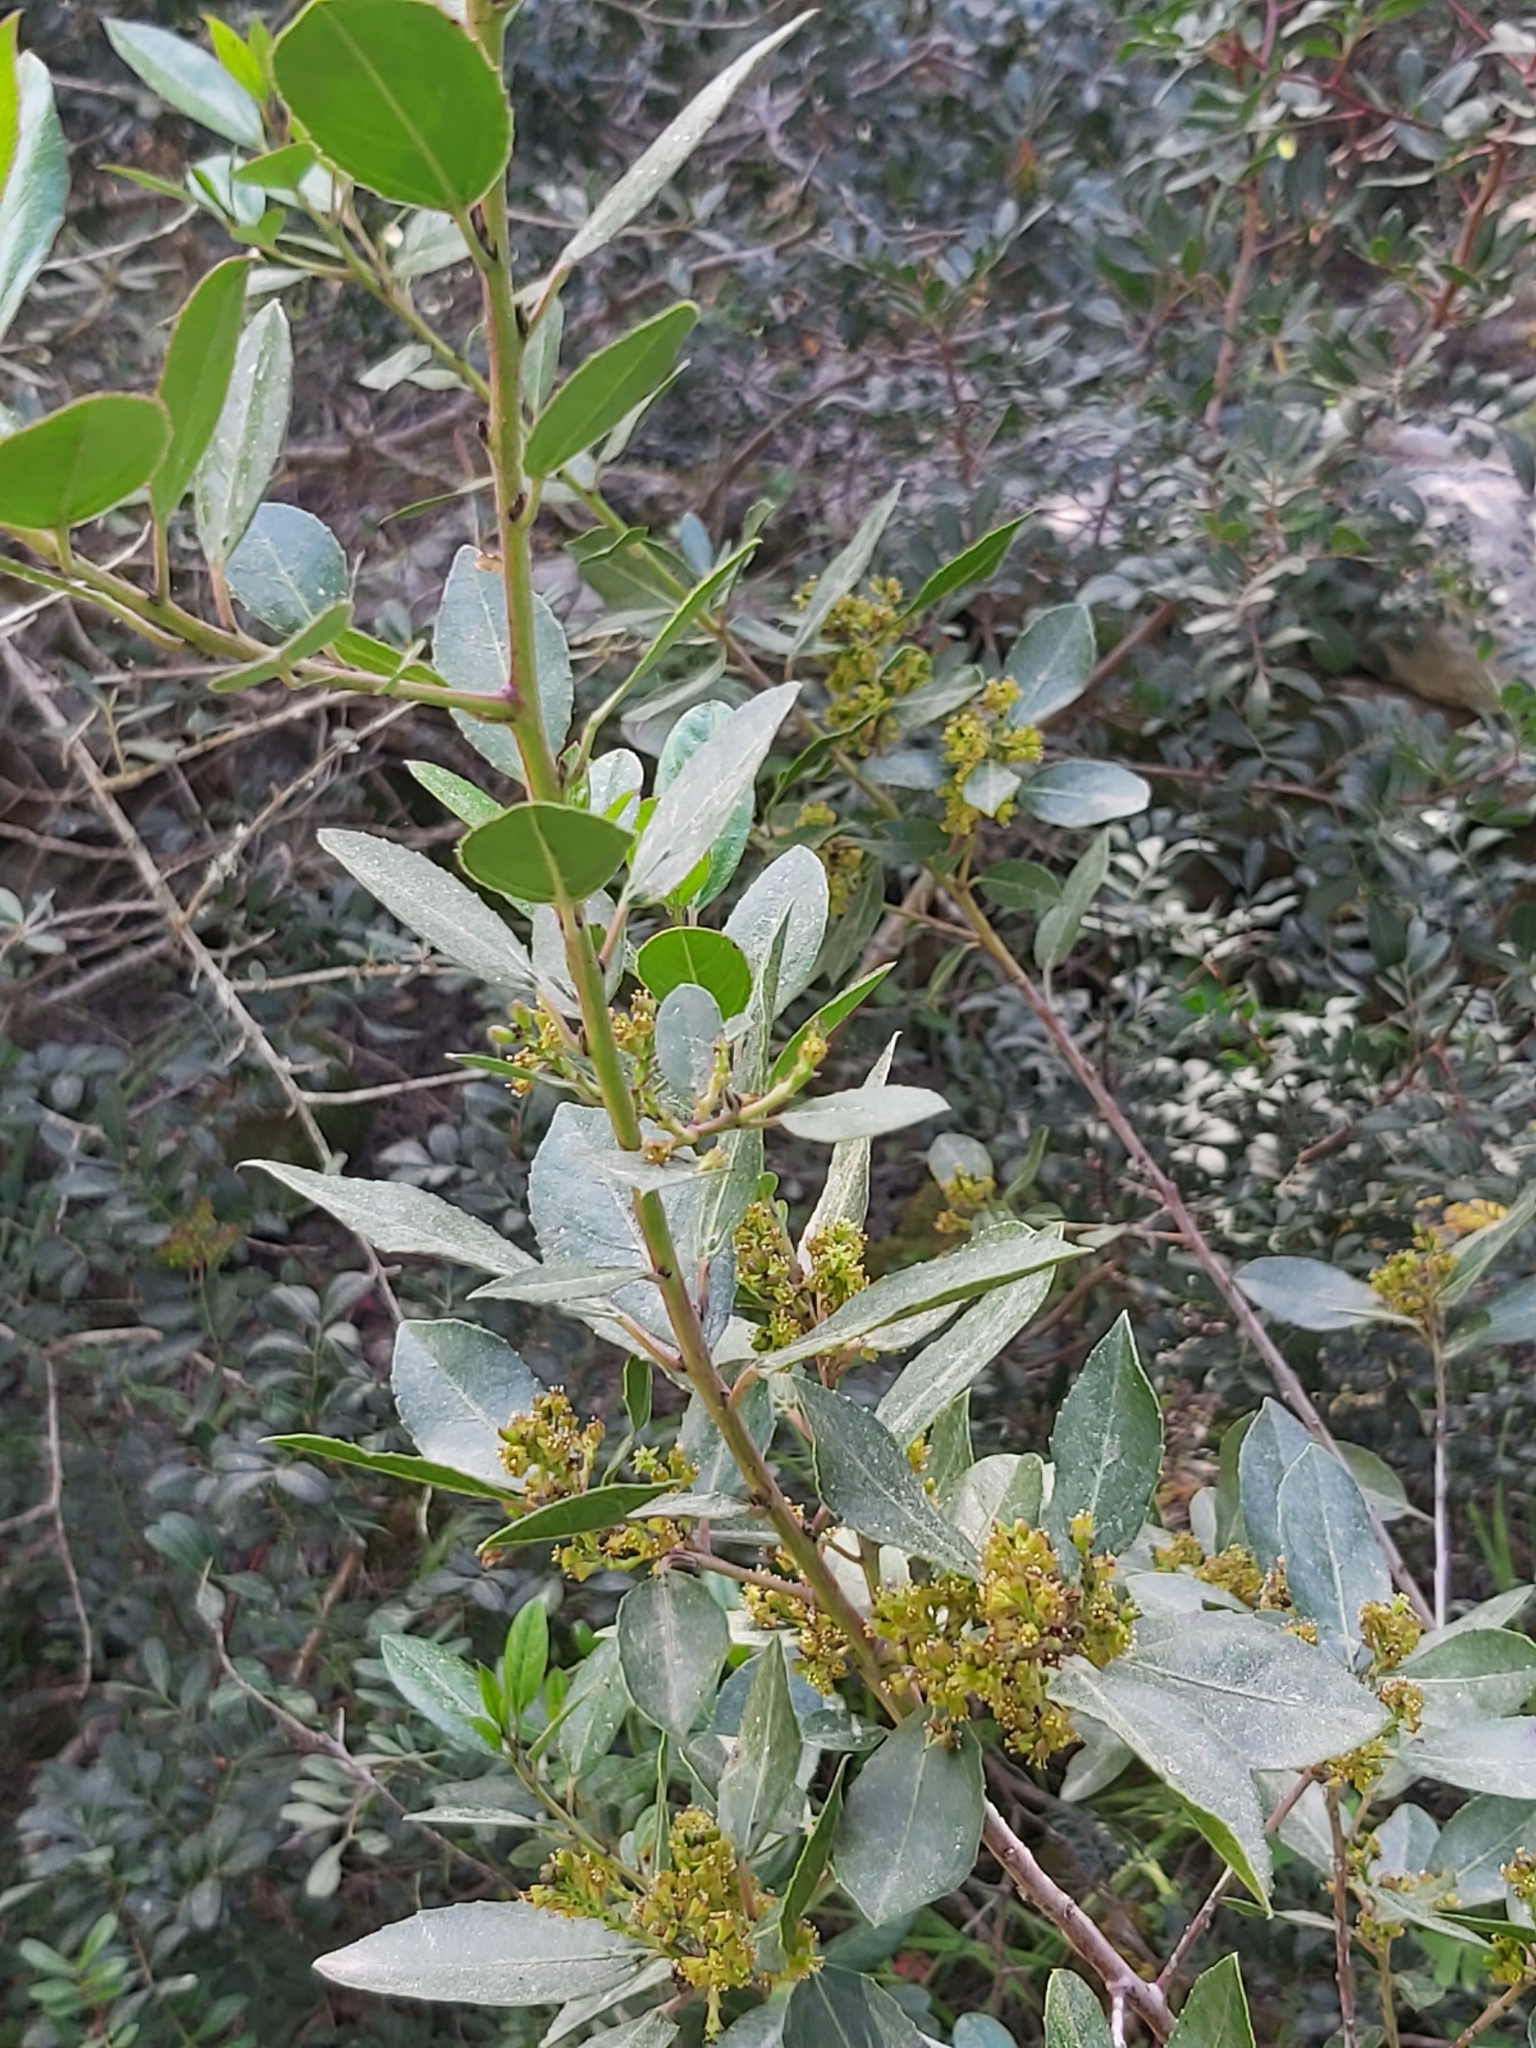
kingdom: Plantae
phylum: Tracheophyta
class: Magnoliopsida
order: Rosales
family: Rhamnaceae
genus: Rhamnus
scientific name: Rhamnus alaternus
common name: Mediterranean buckthorn
